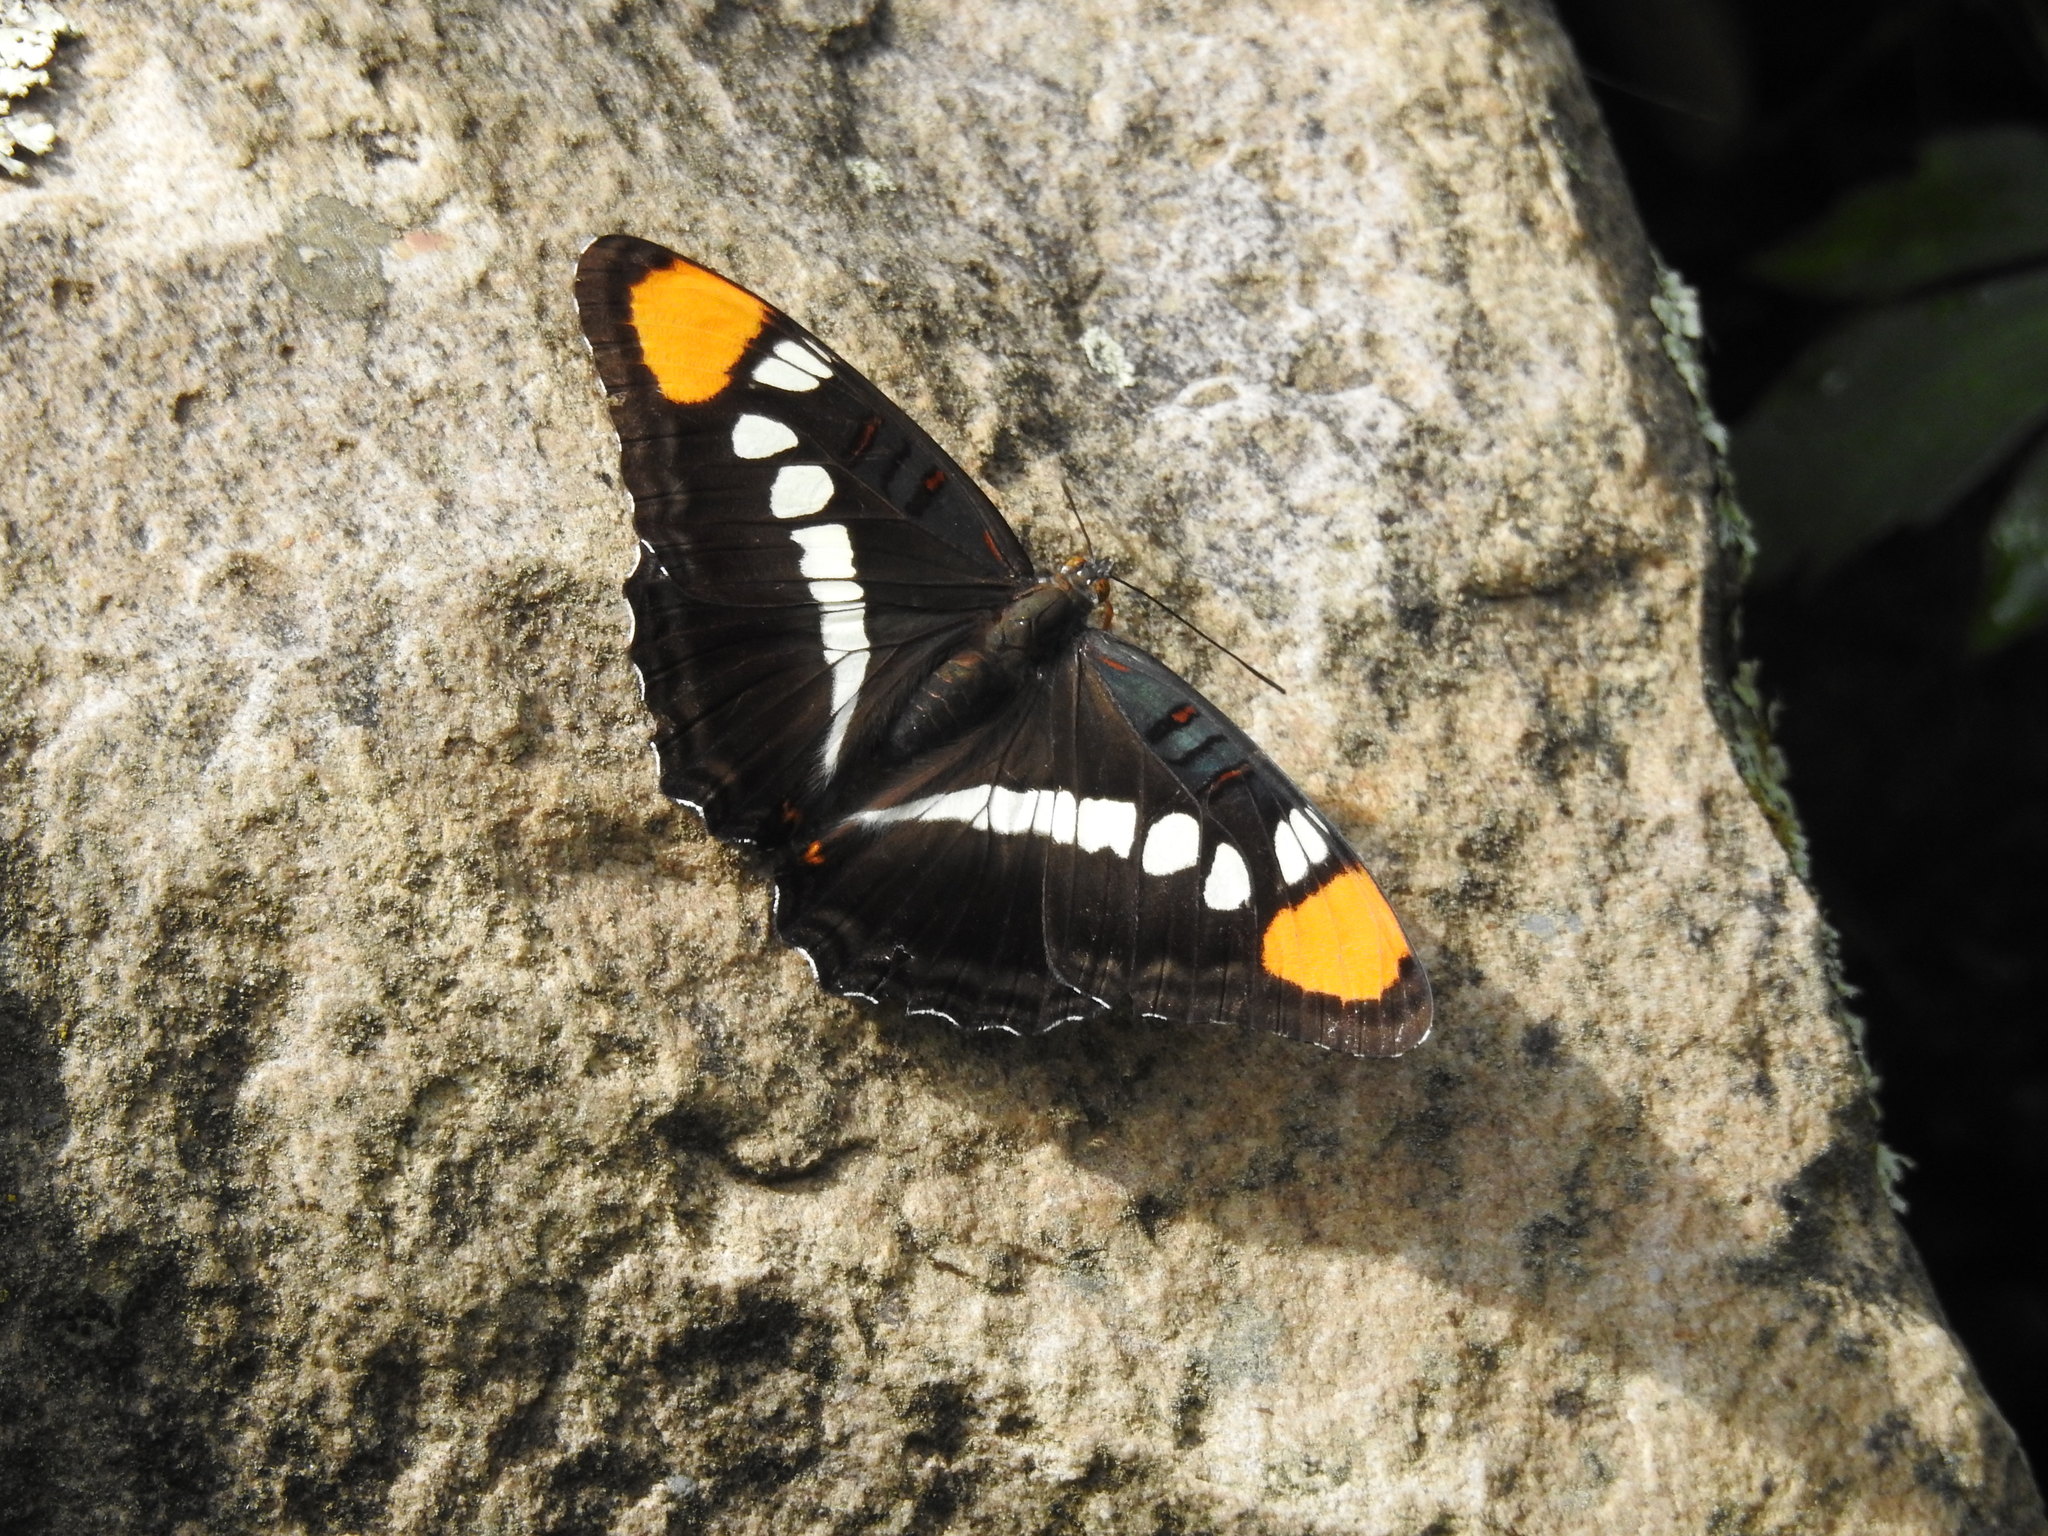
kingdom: Animalia
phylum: Arthropoda
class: Insecta
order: Lepidoptera
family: Nymphalidae
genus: Limenitis
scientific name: Limenitis bredowii
